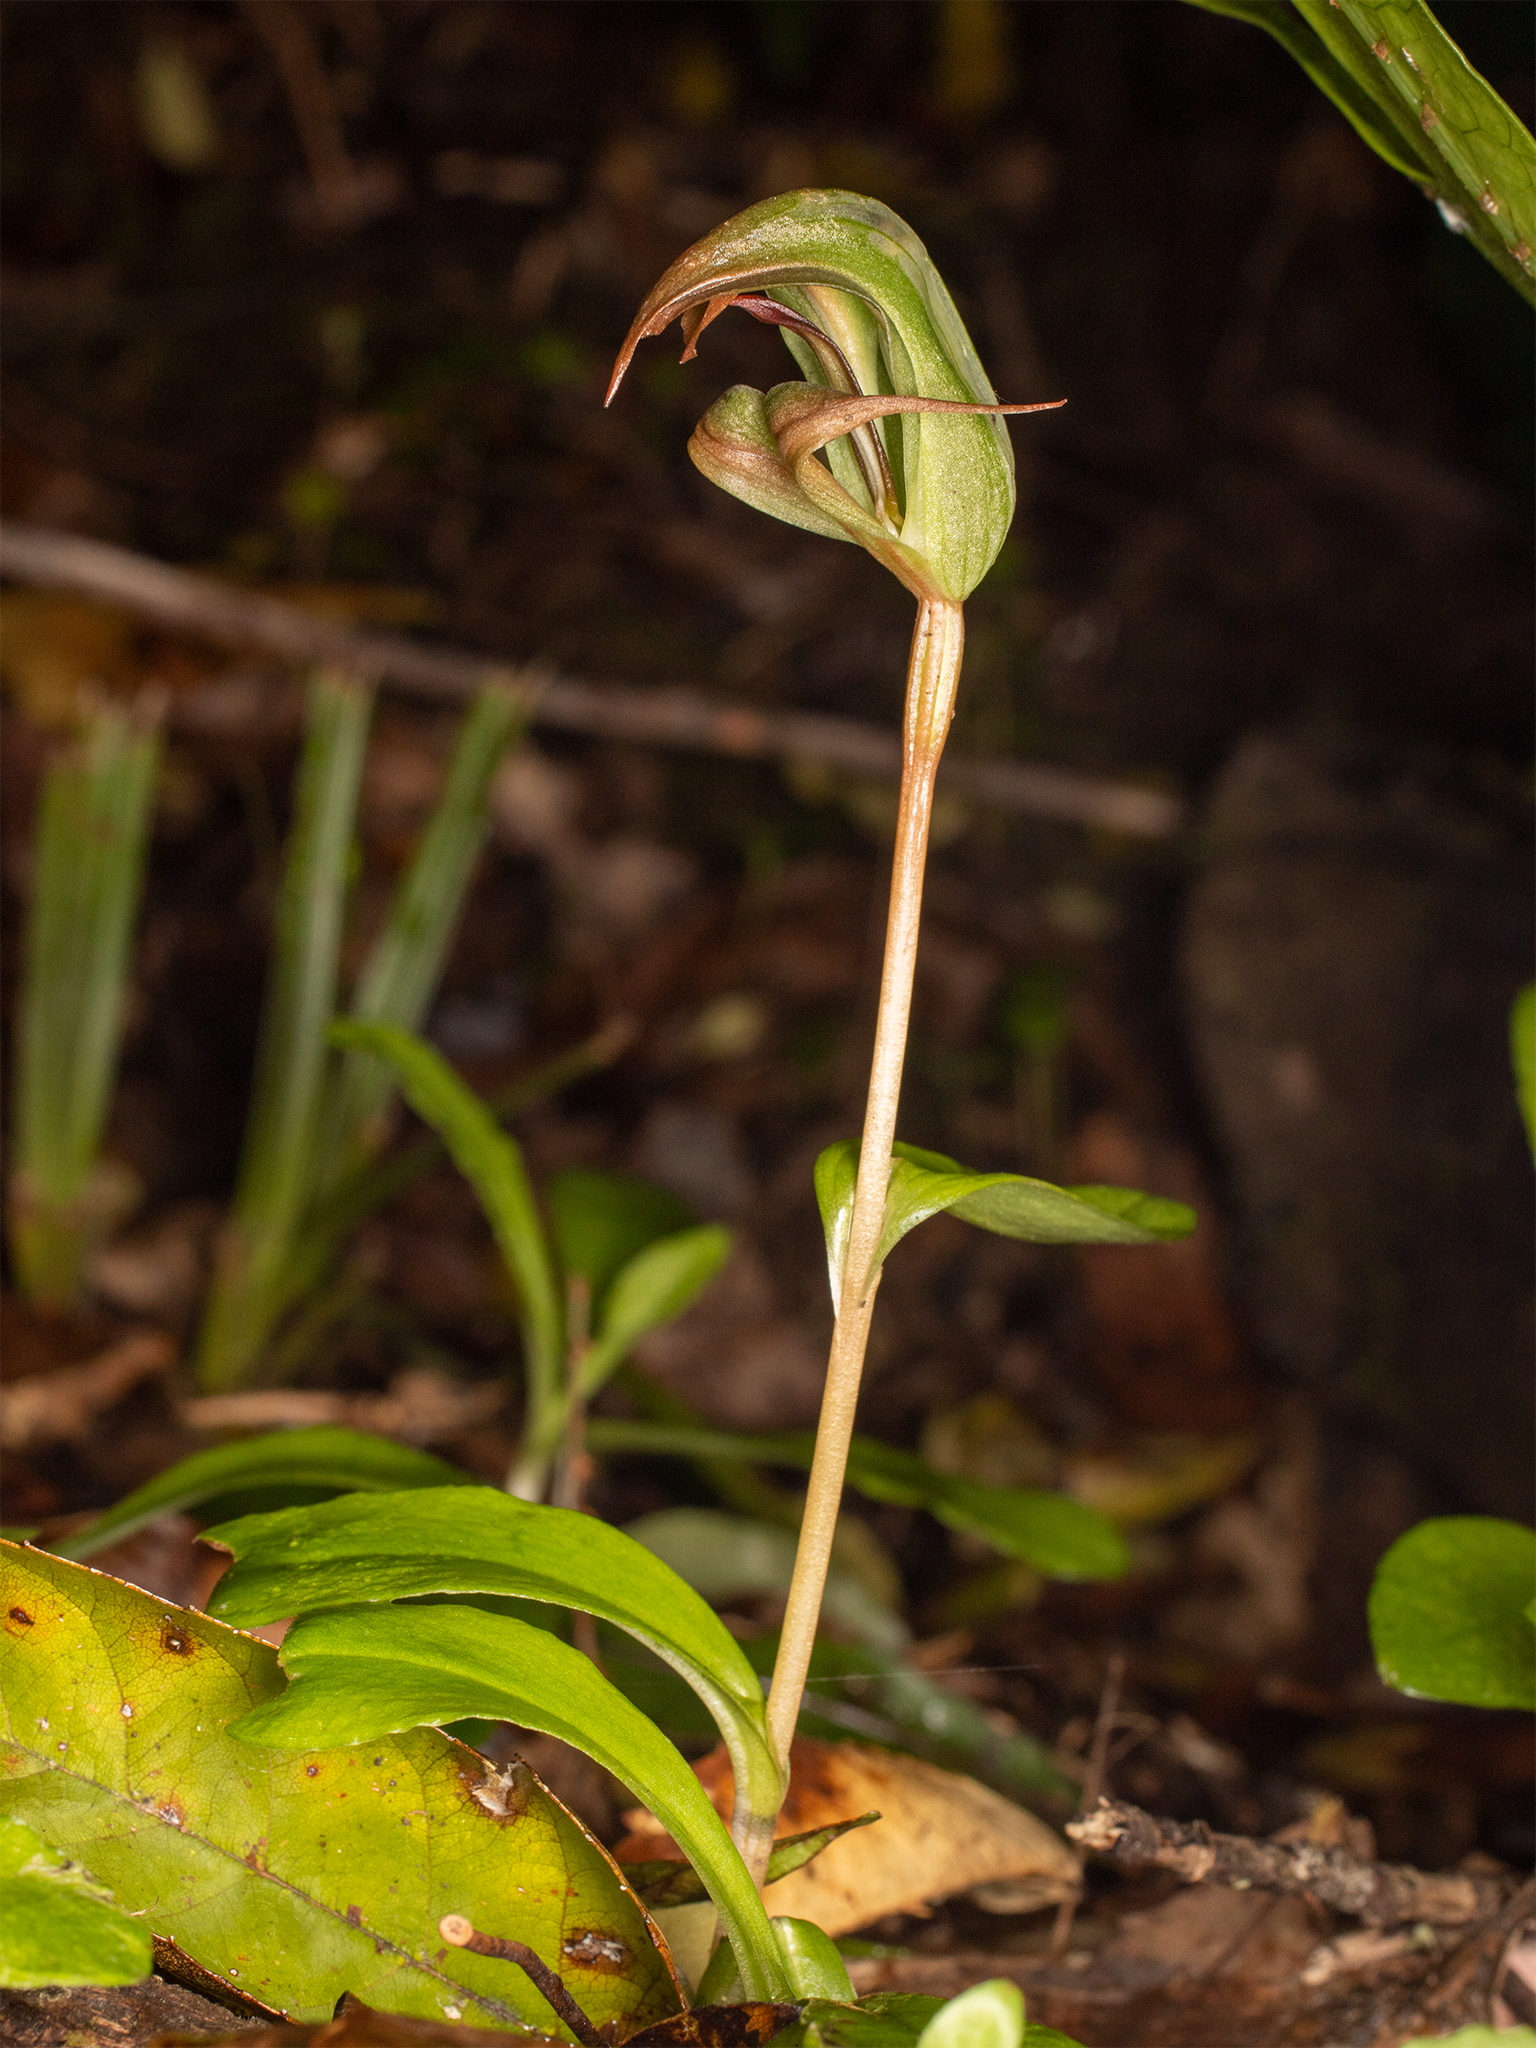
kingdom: Plantae
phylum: Tracheophyta
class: Liliopsida
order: Asparagales
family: Orchidaceae
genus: Pterostylis
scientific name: Pterostylis areolata
